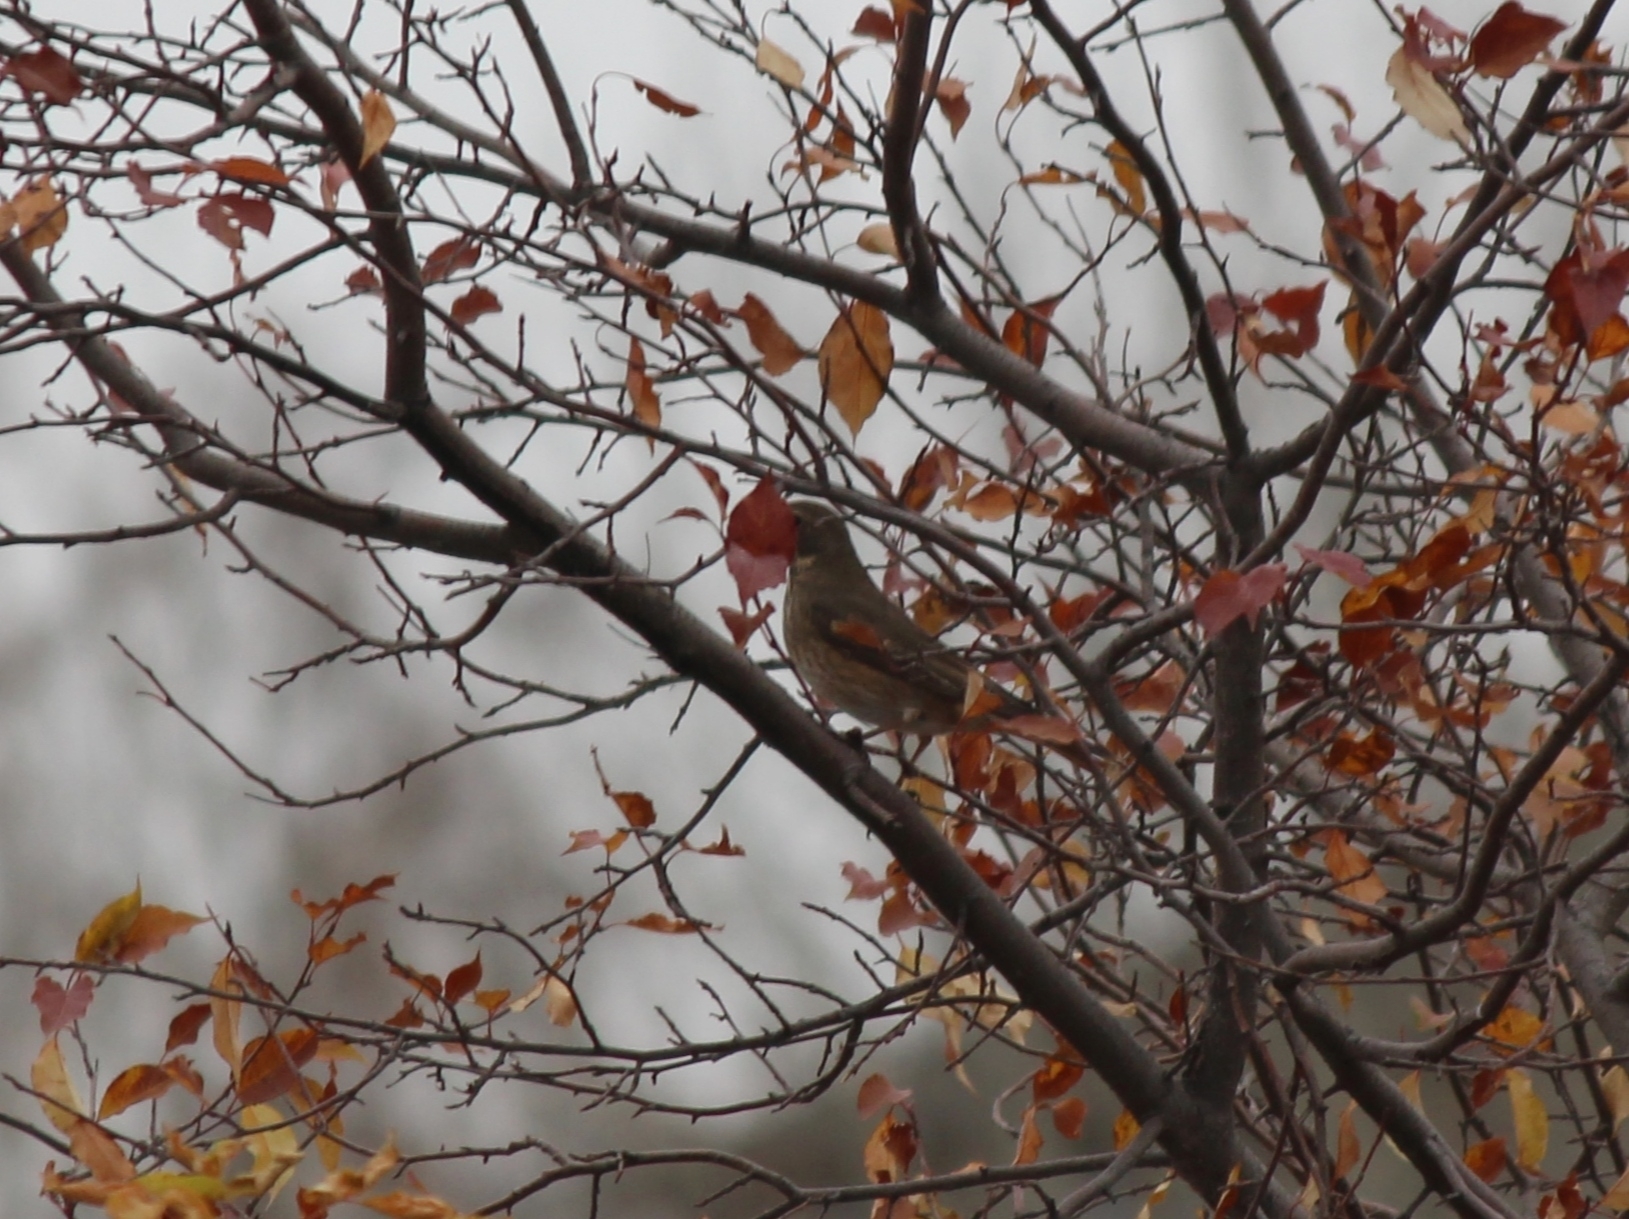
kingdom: Animalia
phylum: Chordata
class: Aves
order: Passeriformes
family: Turdidae
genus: Turdus
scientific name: Turdus
